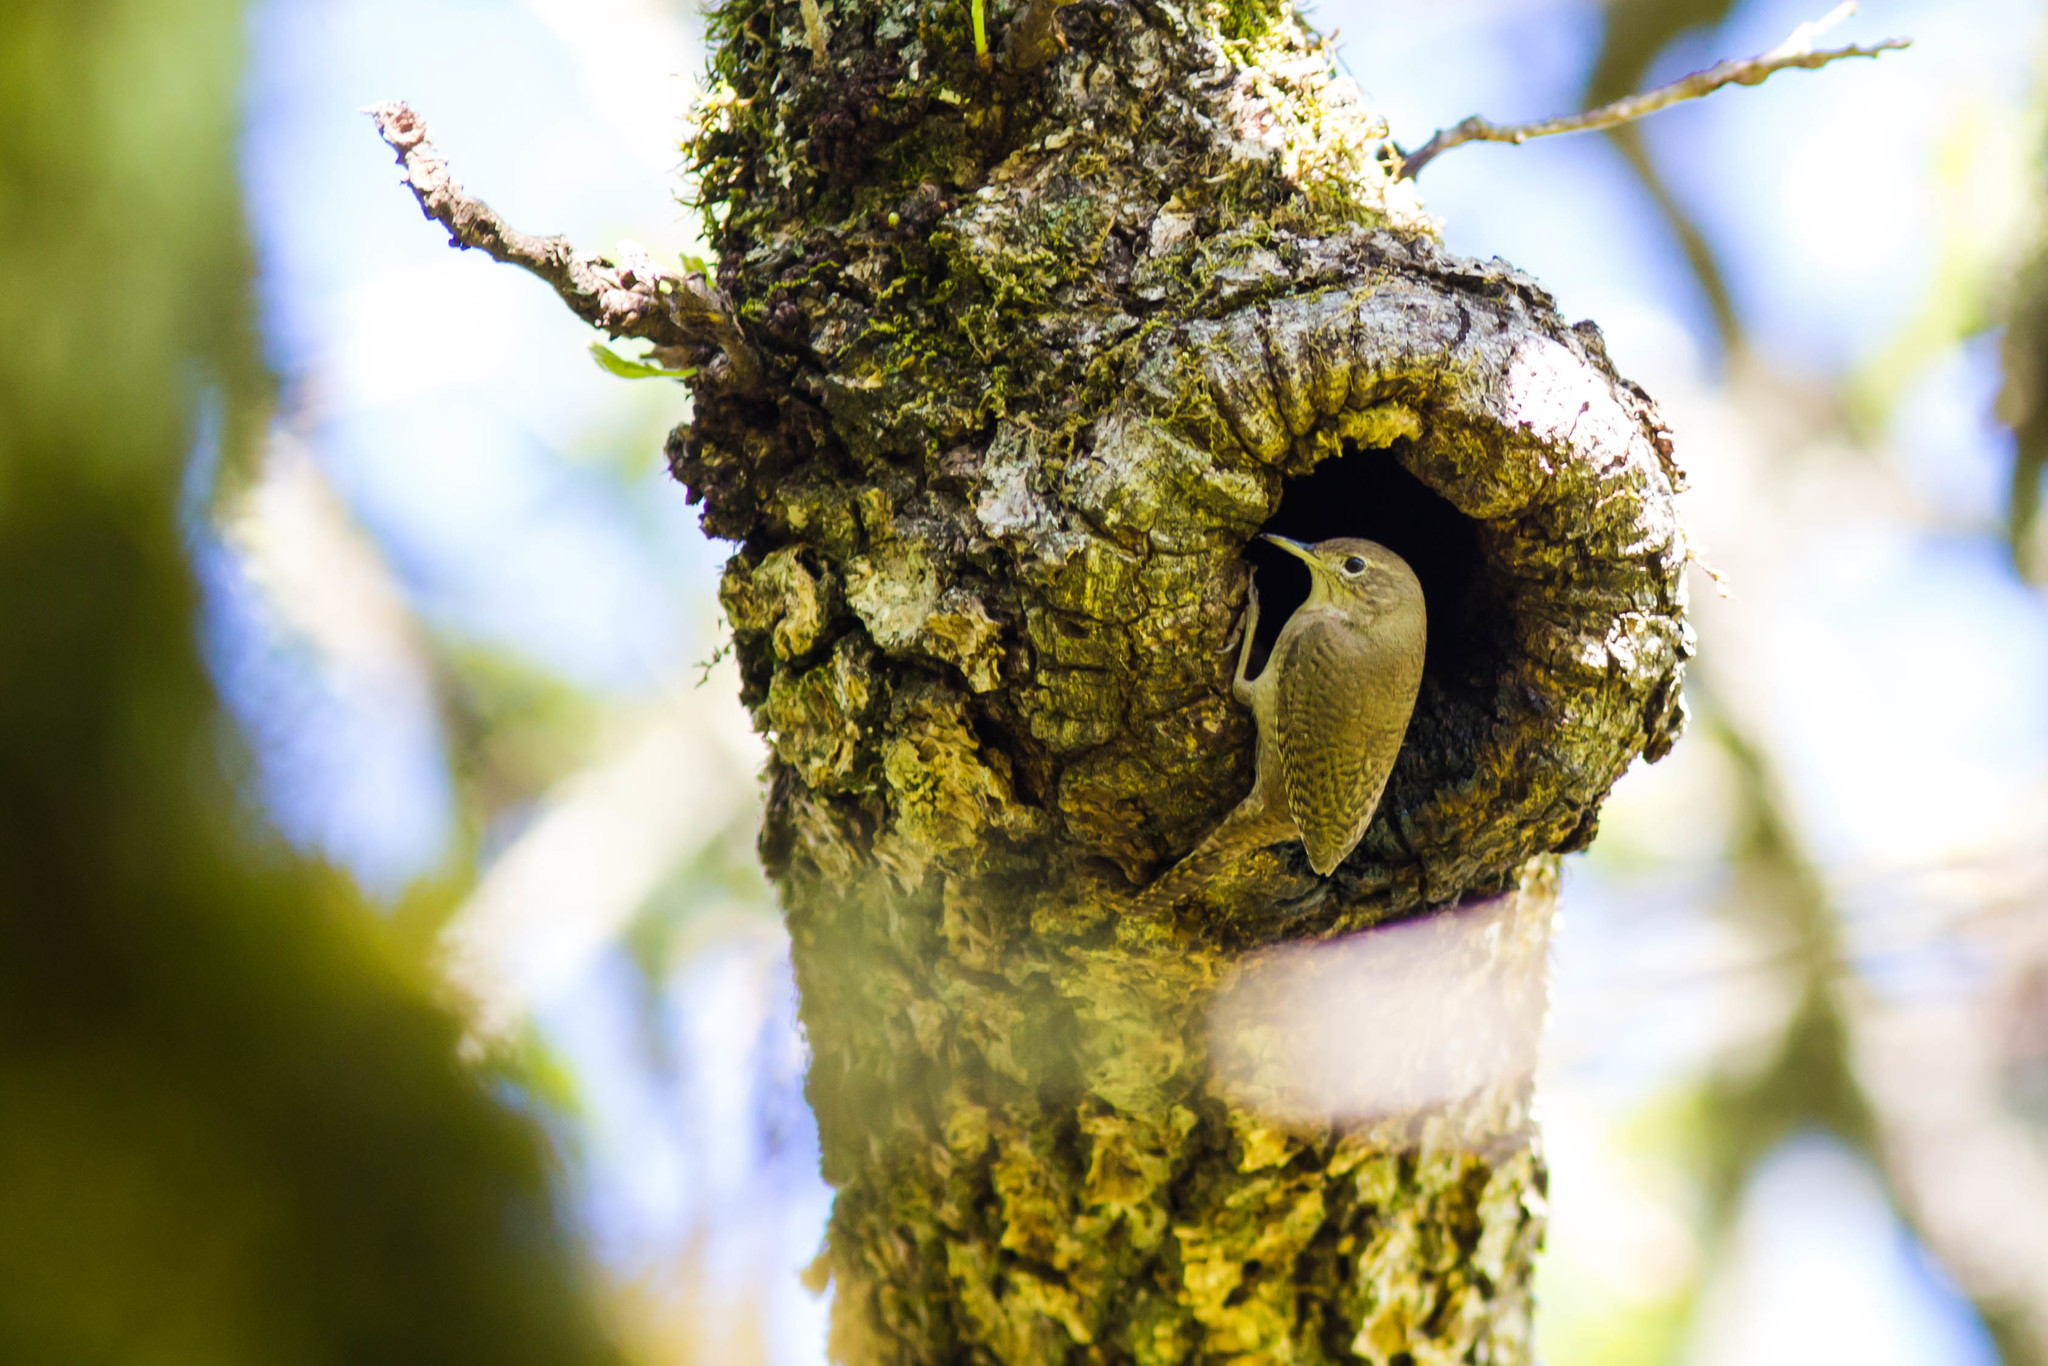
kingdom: Animalia
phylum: Chordata
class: Aves
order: Passeriformes
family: Troglodytidae
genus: Troglodytes
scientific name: Troglodytes aedon
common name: House wren
